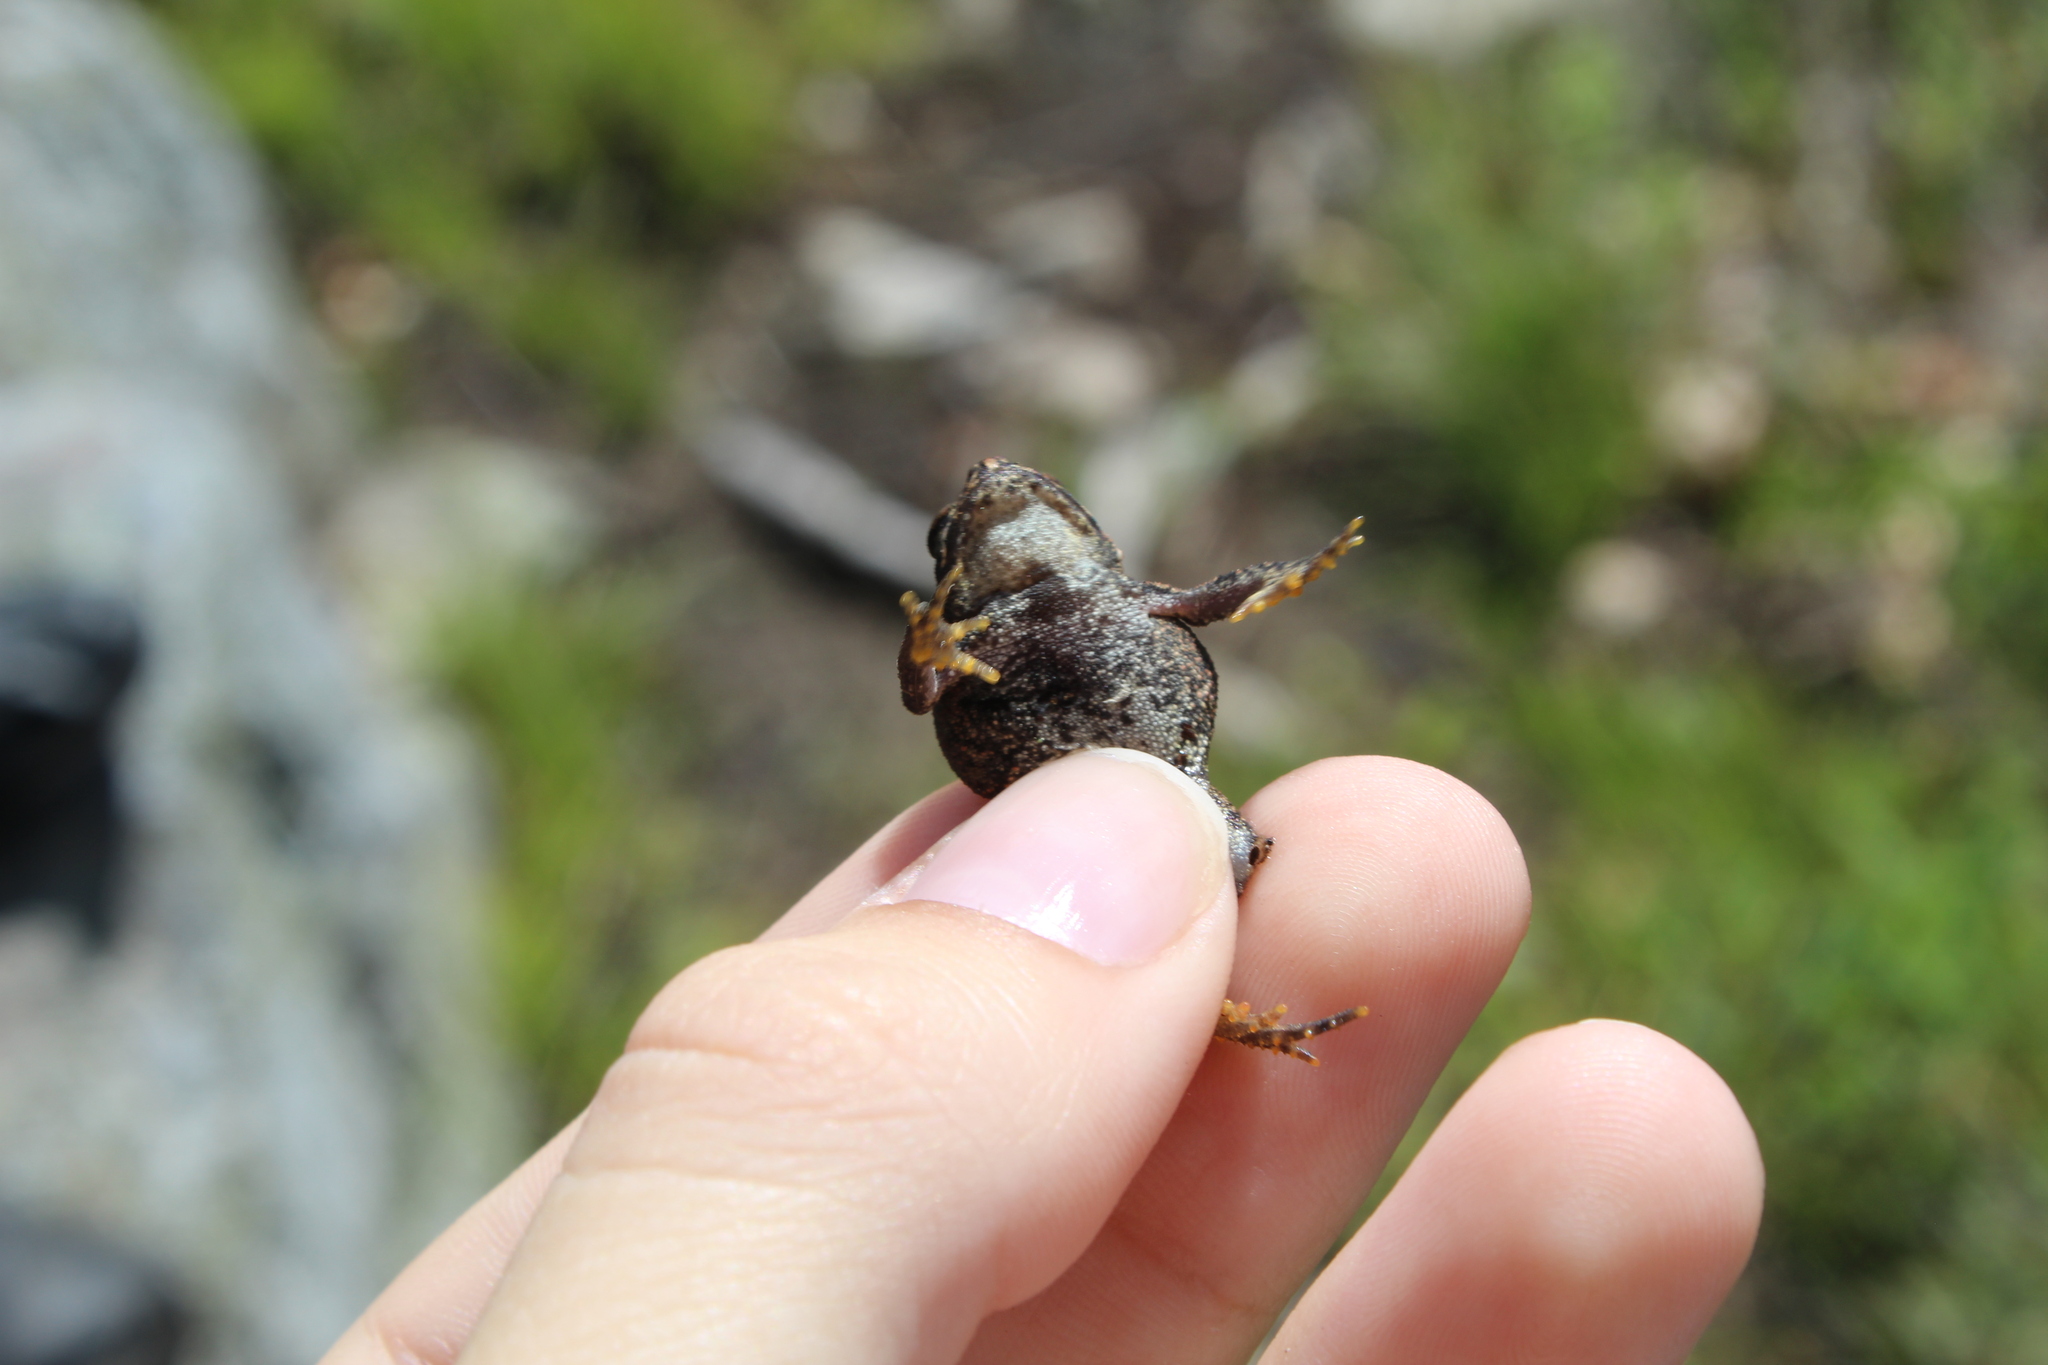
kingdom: Animalia
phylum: Chordata
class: Amphibia
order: Anura
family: Bufonidae
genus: Anaxyrus
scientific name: Anaxyrus americanus
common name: American toad
